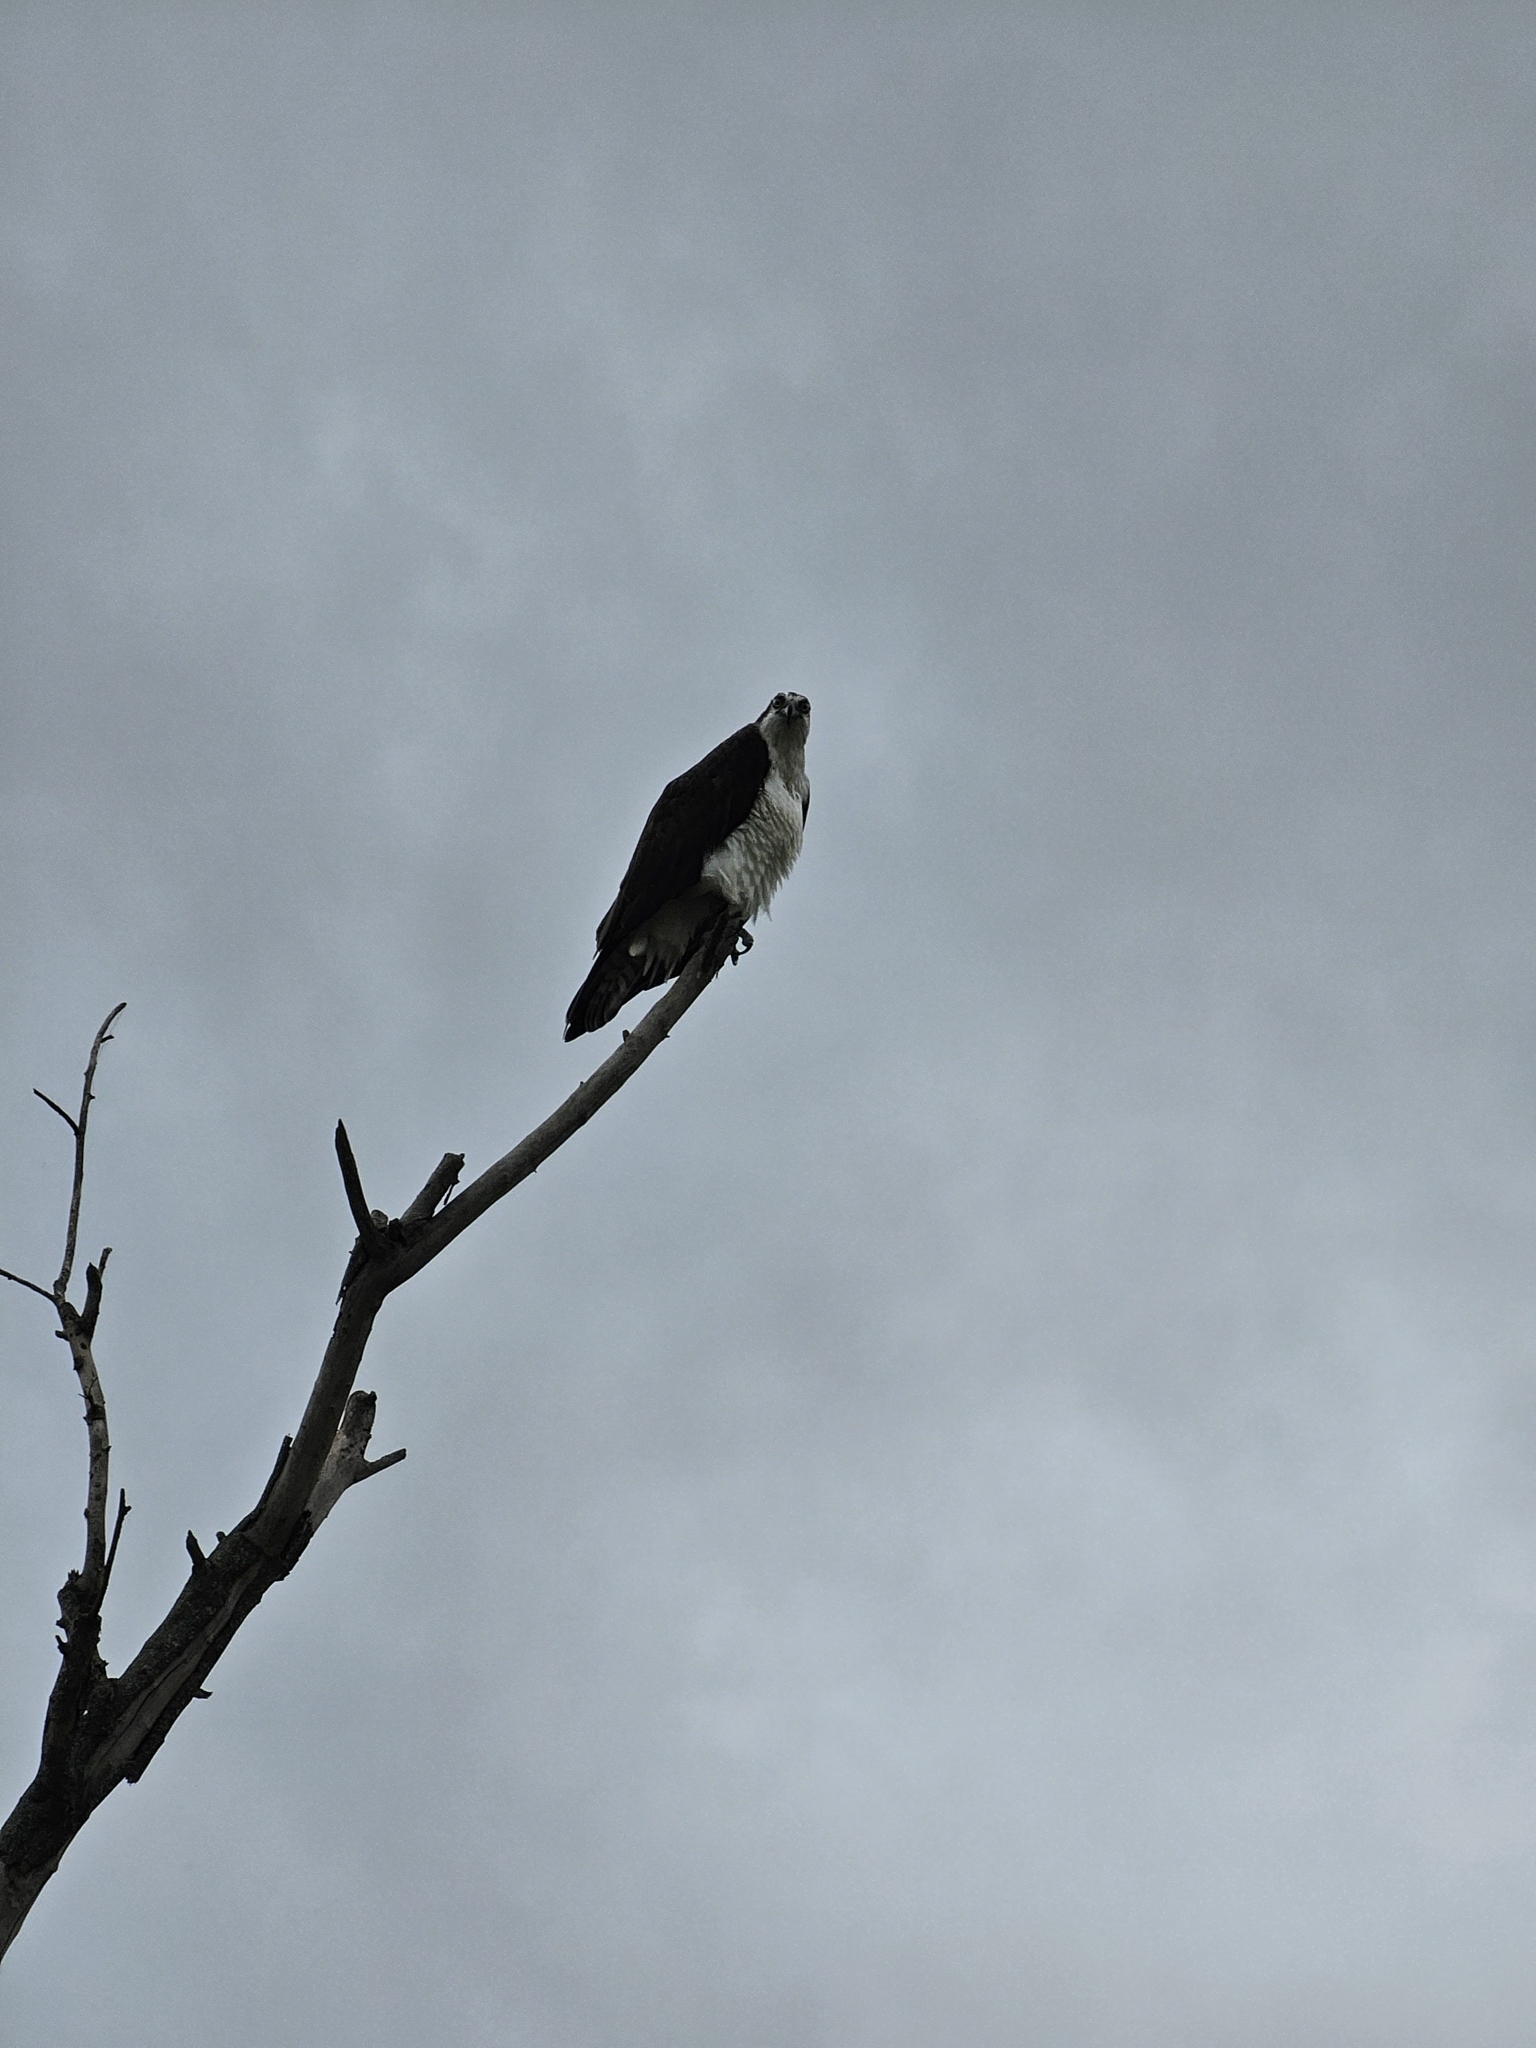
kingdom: Animalia
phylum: Chordata
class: Aves
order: Accipitriformes
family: Pandionidae
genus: Pandion
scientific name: Pandion haliaetus
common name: Osprey
